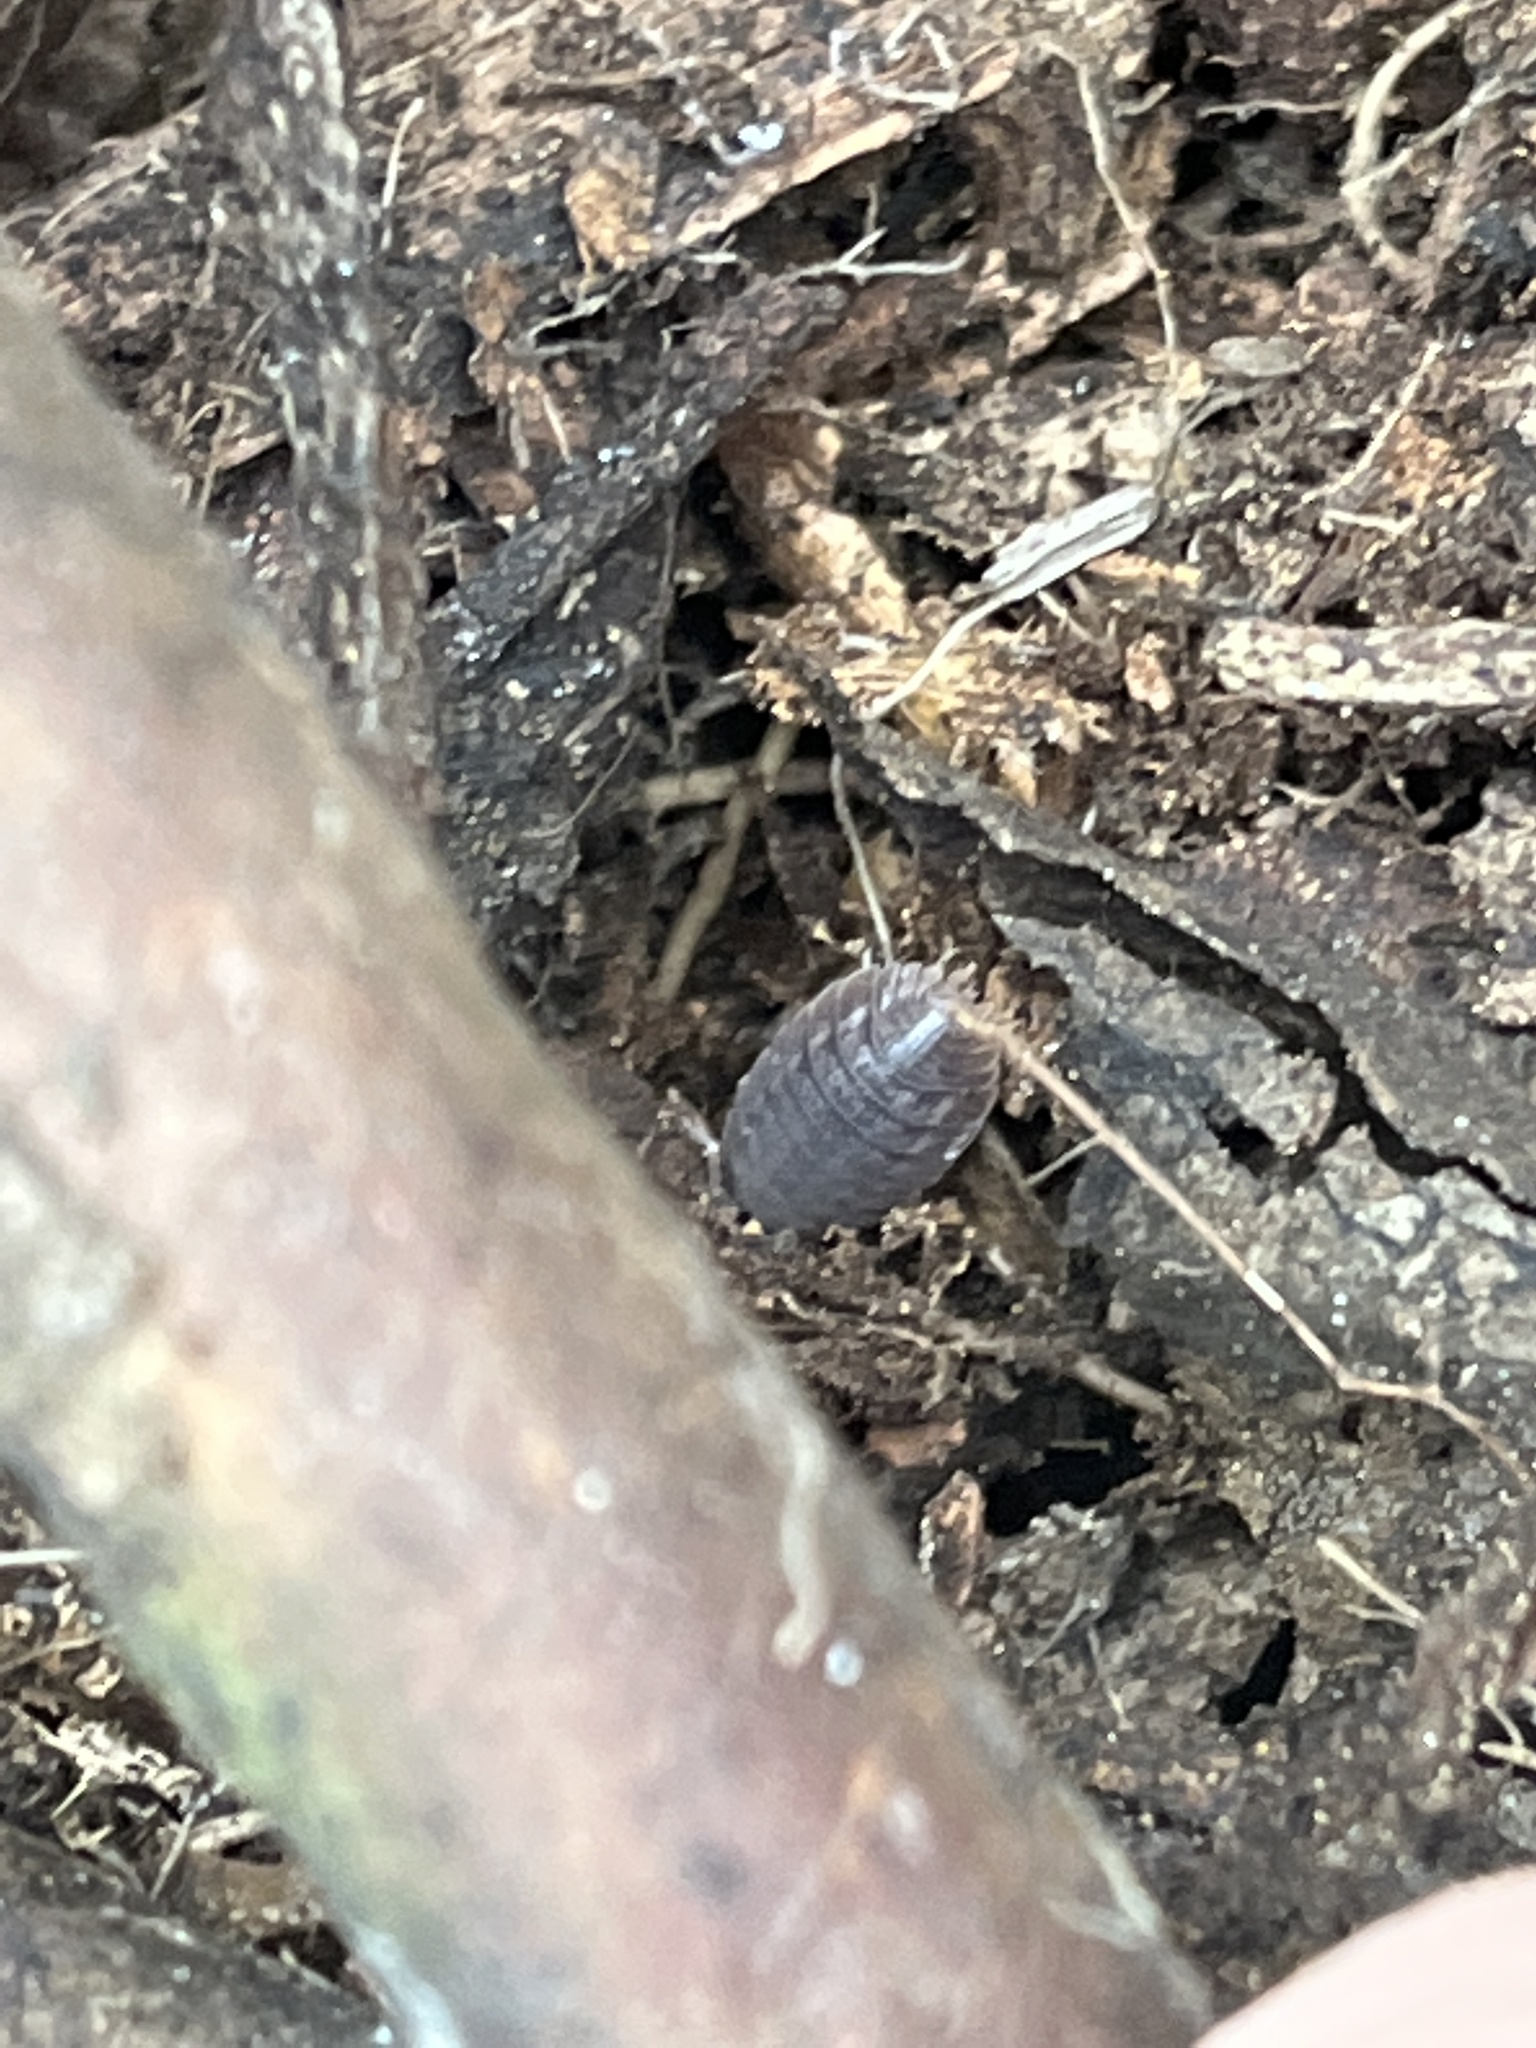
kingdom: Animalia
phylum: Arthropoda
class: Malacostraca
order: Isopoda
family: Porcellionidae
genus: Porcellio
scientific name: Porcellio dilatatus
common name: Isopod
